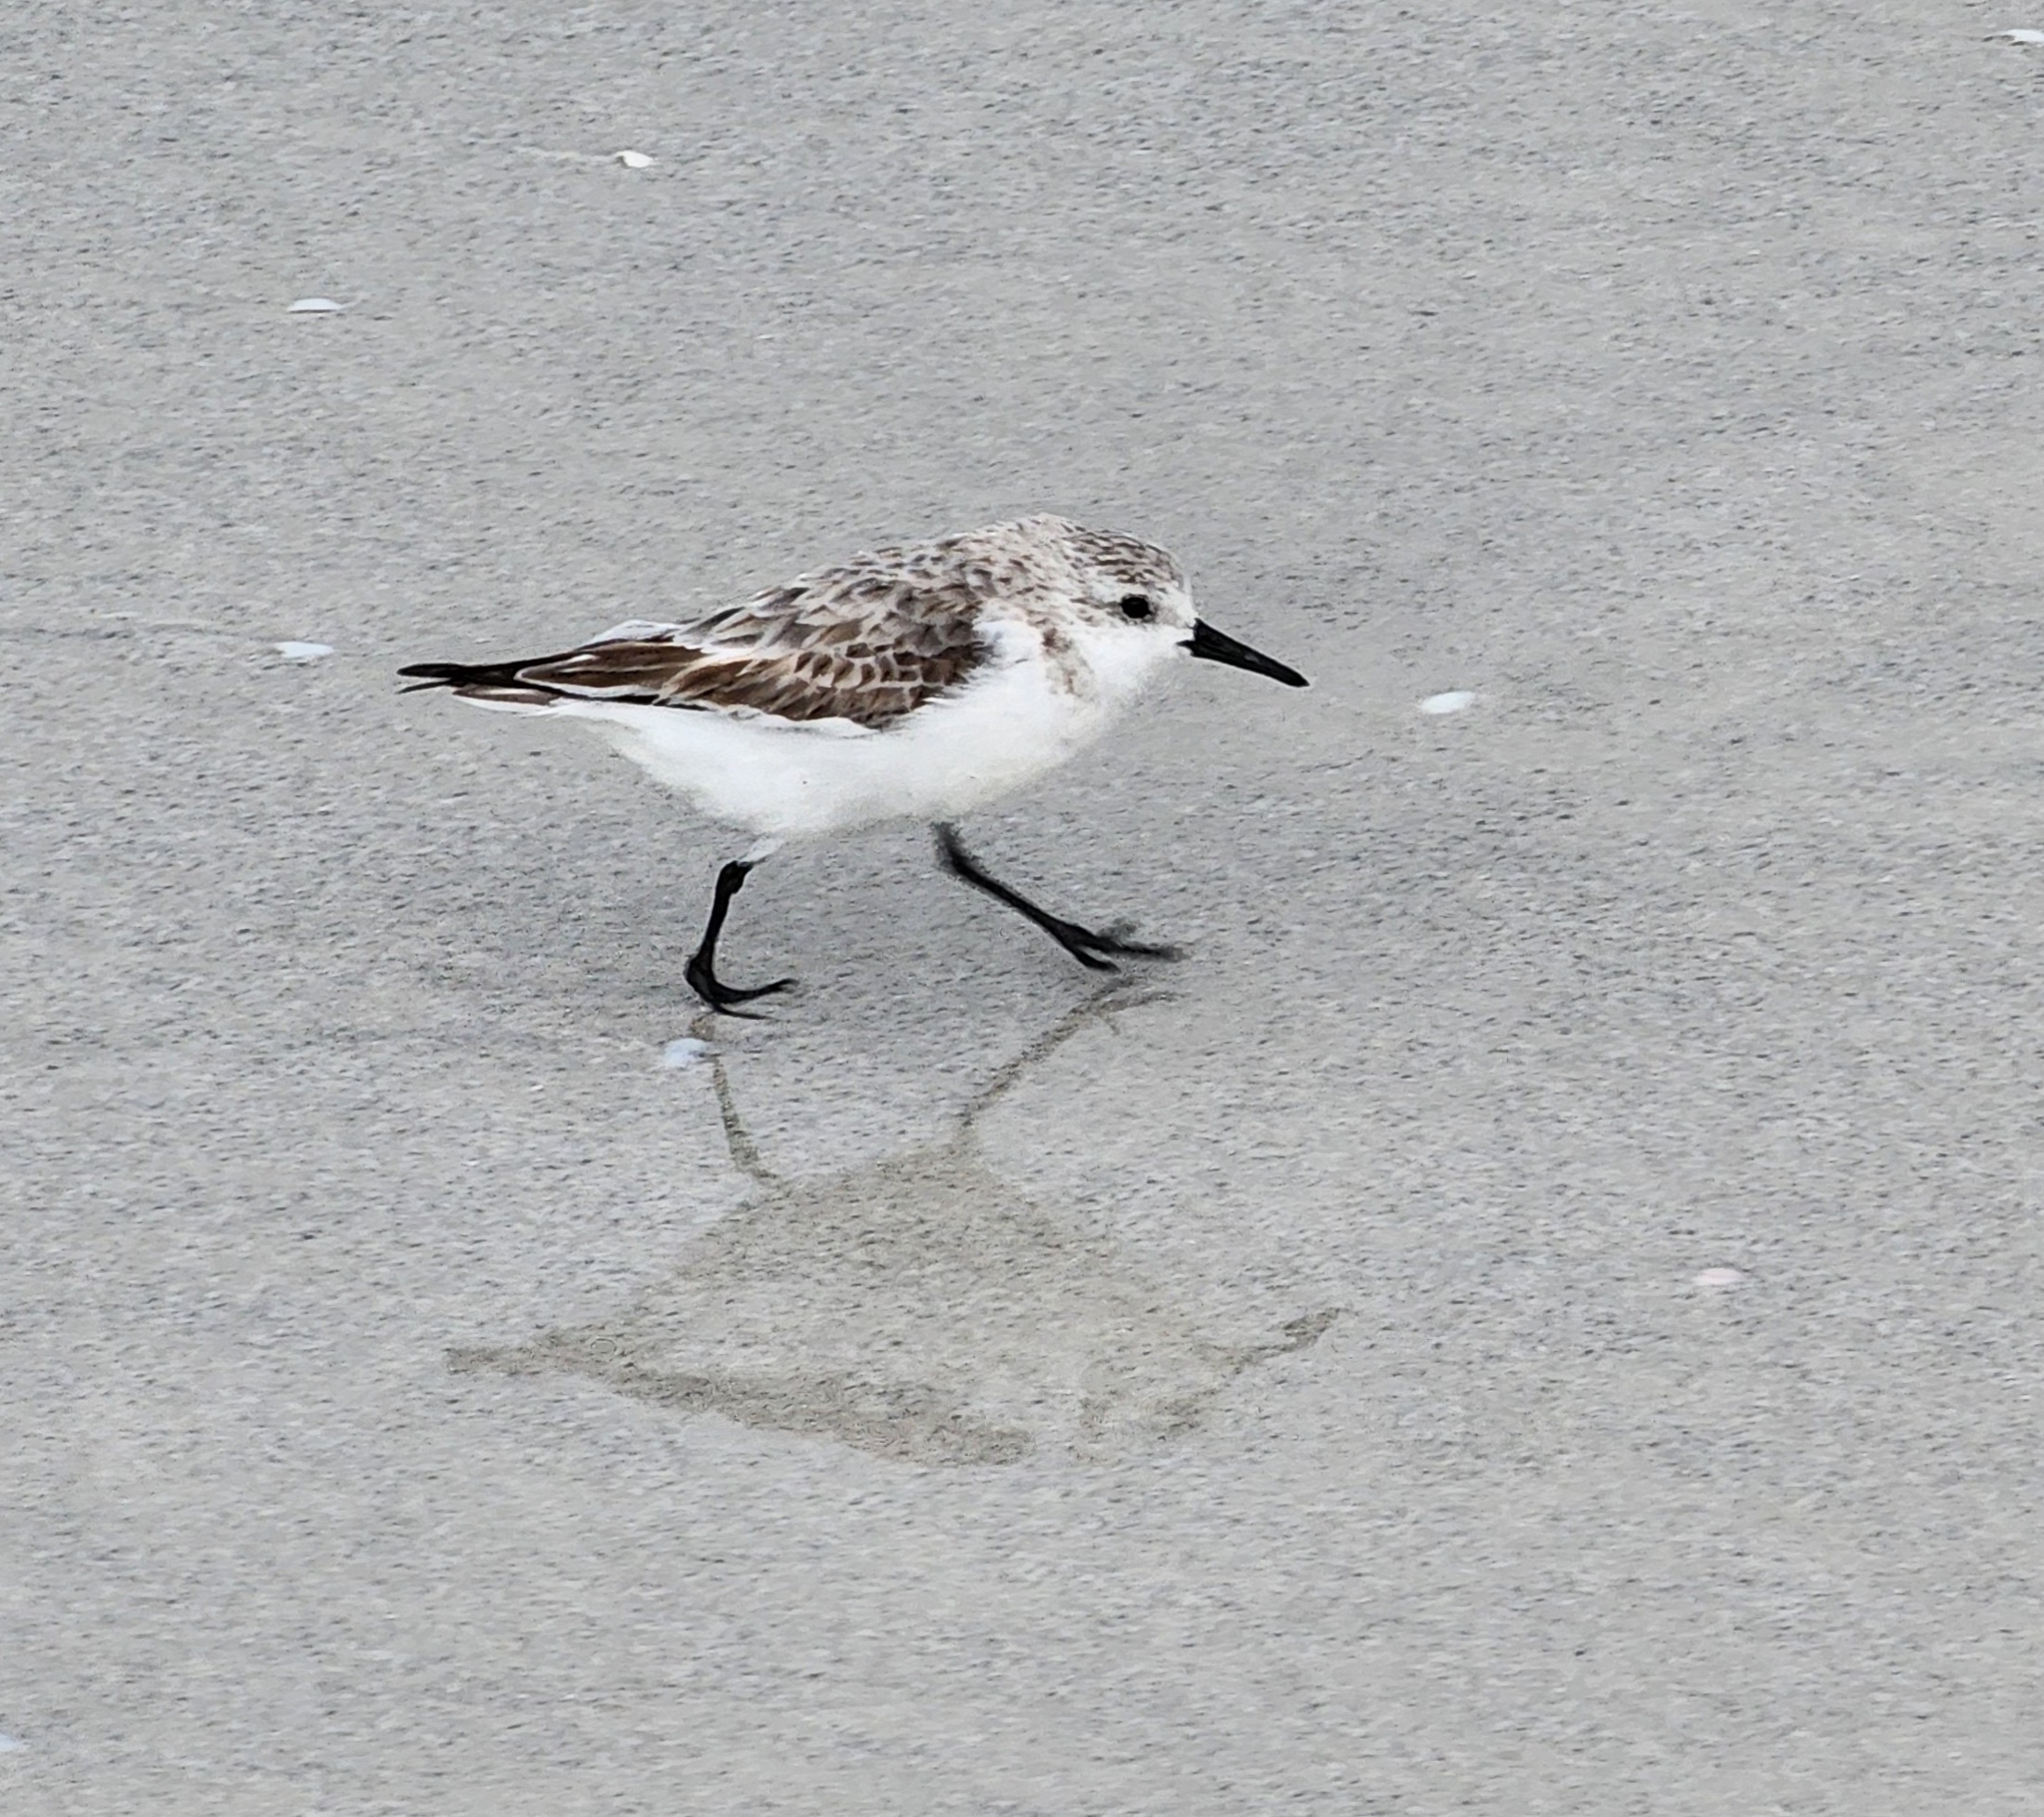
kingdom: Animalia
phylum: Chordata
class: Aves
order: Charadriiformes
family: Scolopacidae
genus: Calidris
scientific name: Calidris alba
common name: Sanderling
